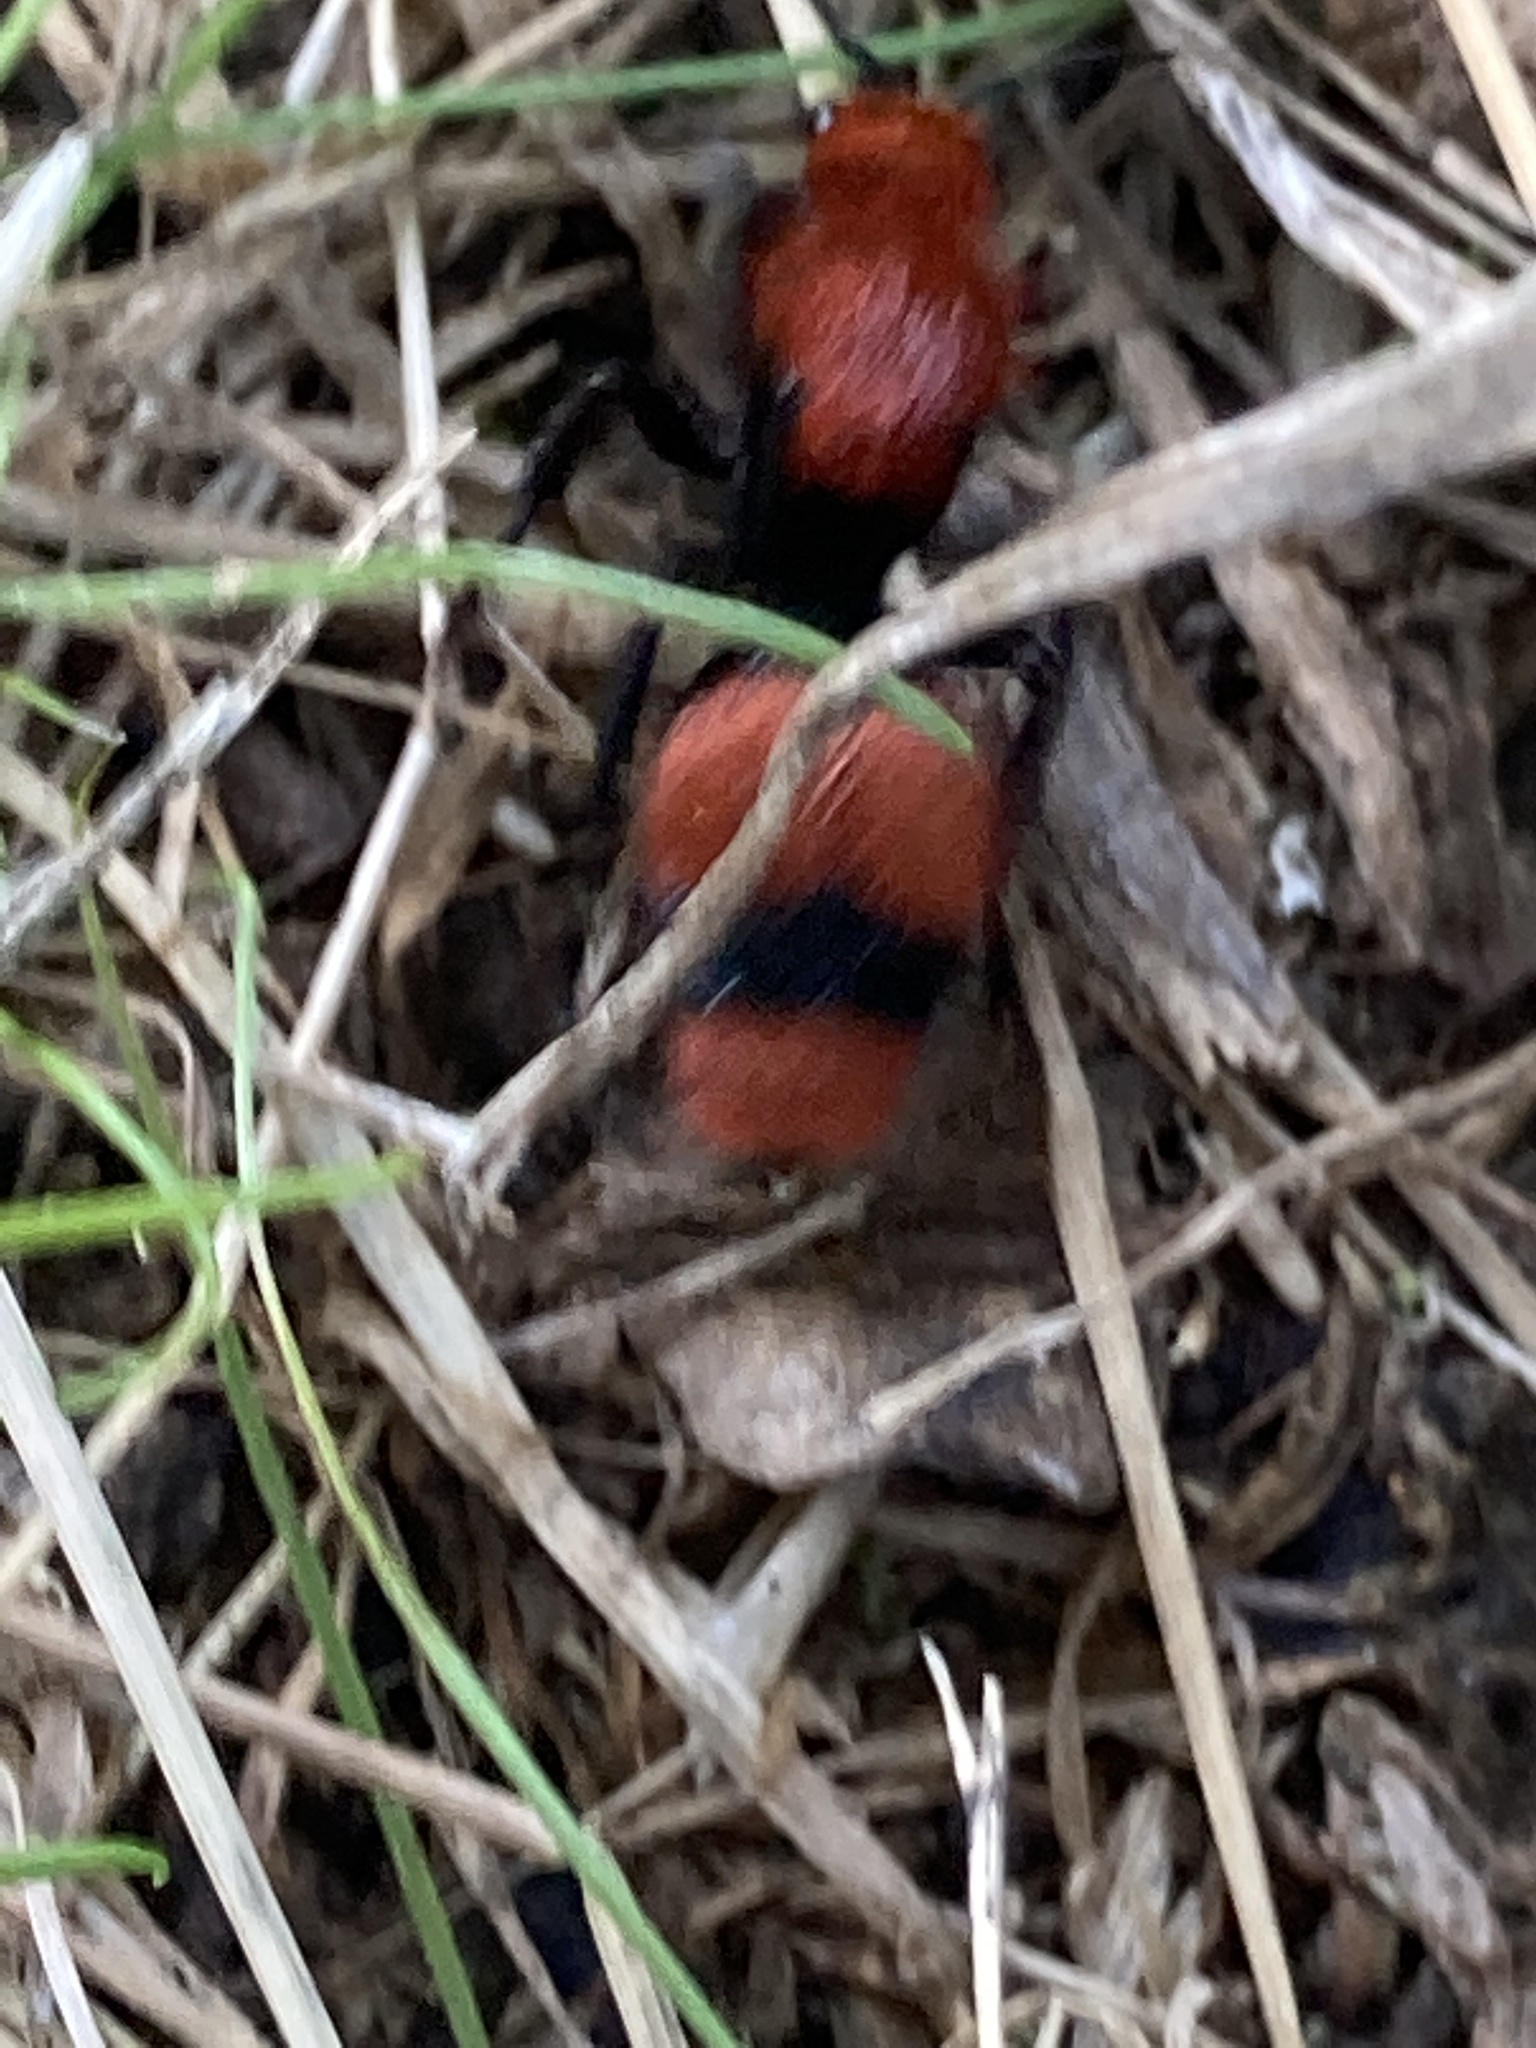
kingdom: Animalia
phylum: Arthropoda
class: Insecta
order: Hymenoptera
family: Mutillidae
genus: Dasymutilla
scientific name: Dasymutilla occidentalis
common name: Common eastern velvet ant
